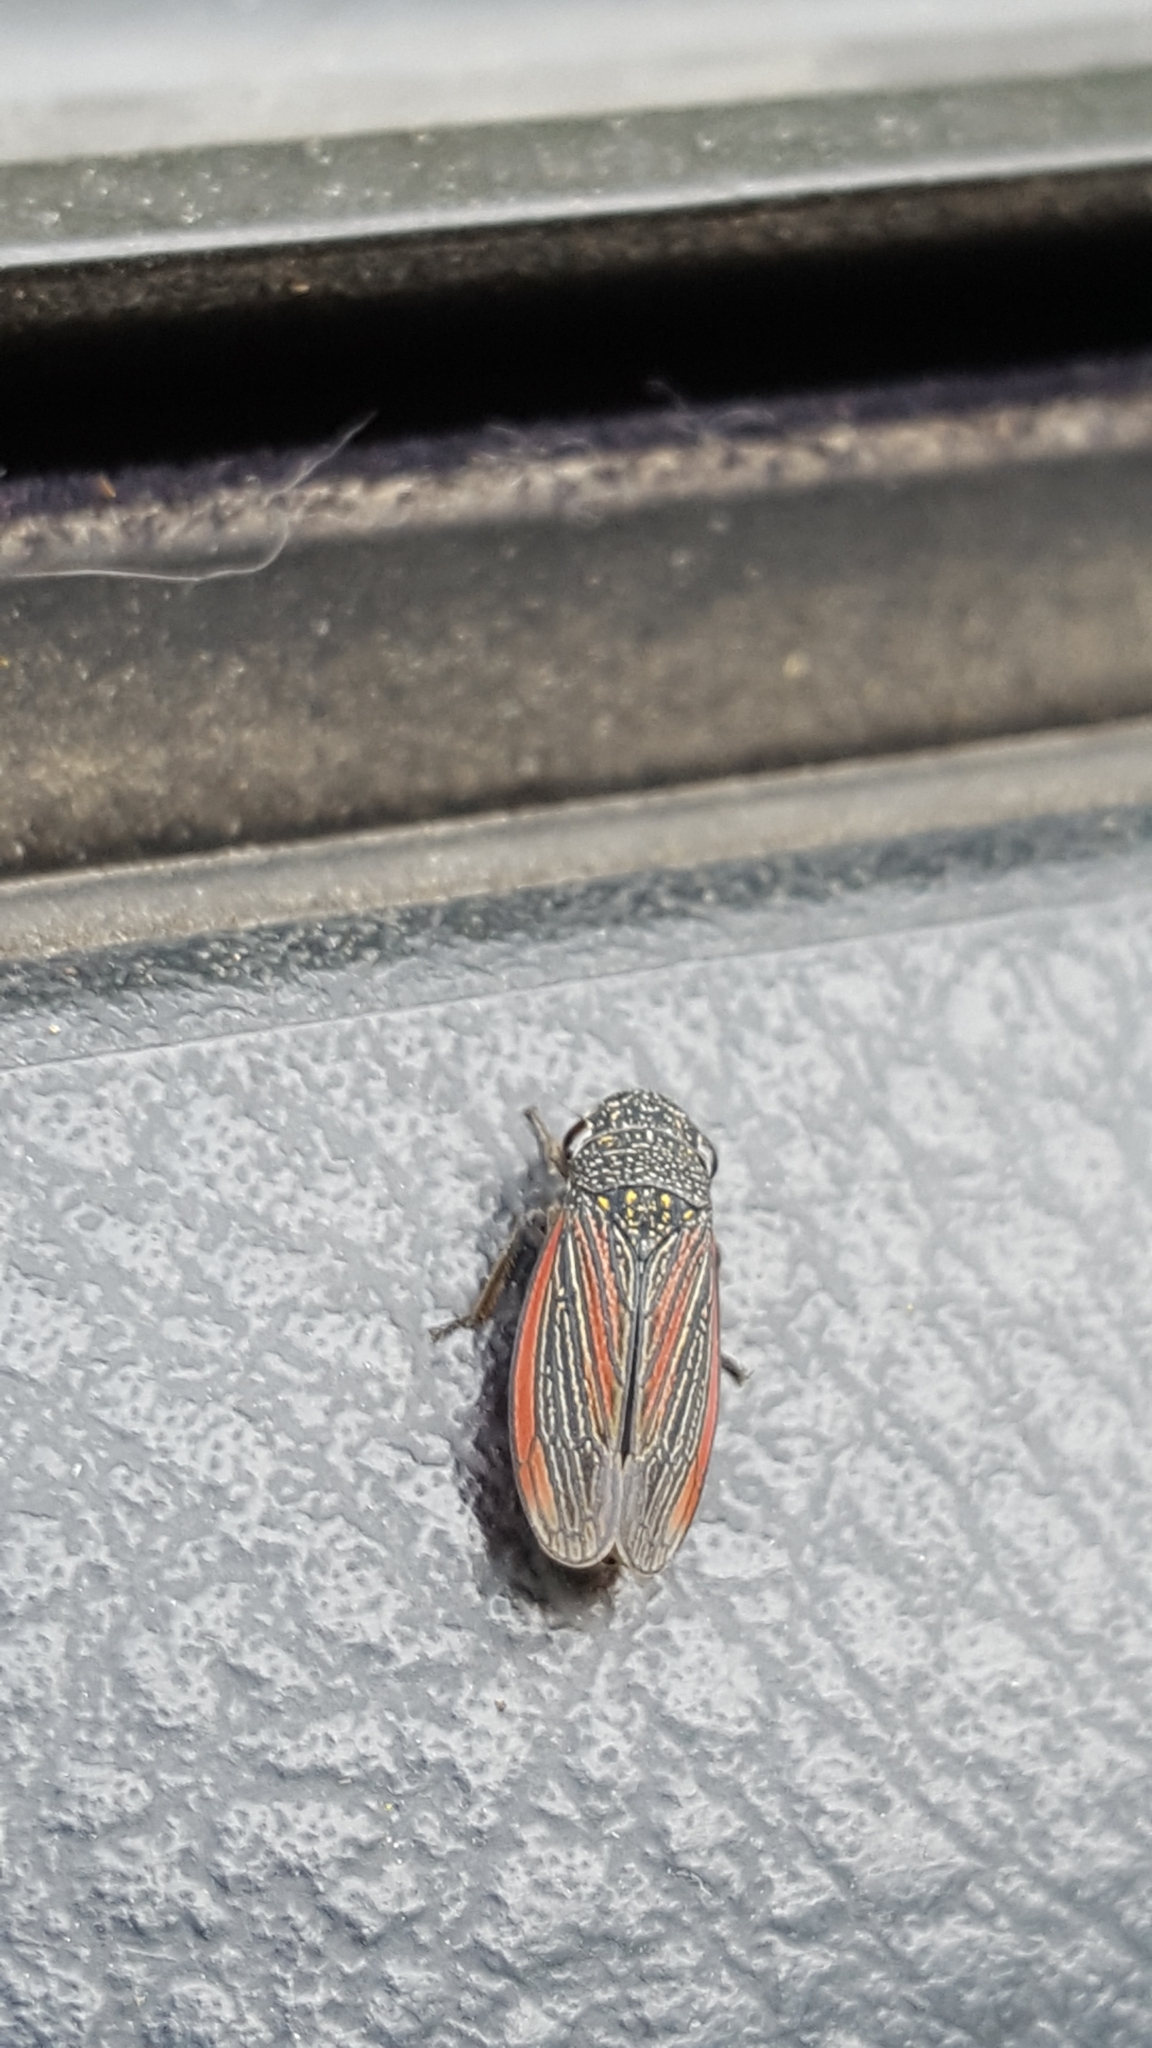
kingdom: Animalia
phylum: Arthropoda
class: Insecta
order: Hemiptera
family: Cicadellidae
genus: Cuerna
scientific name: Cuerna striata
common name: Striped leafhopper
